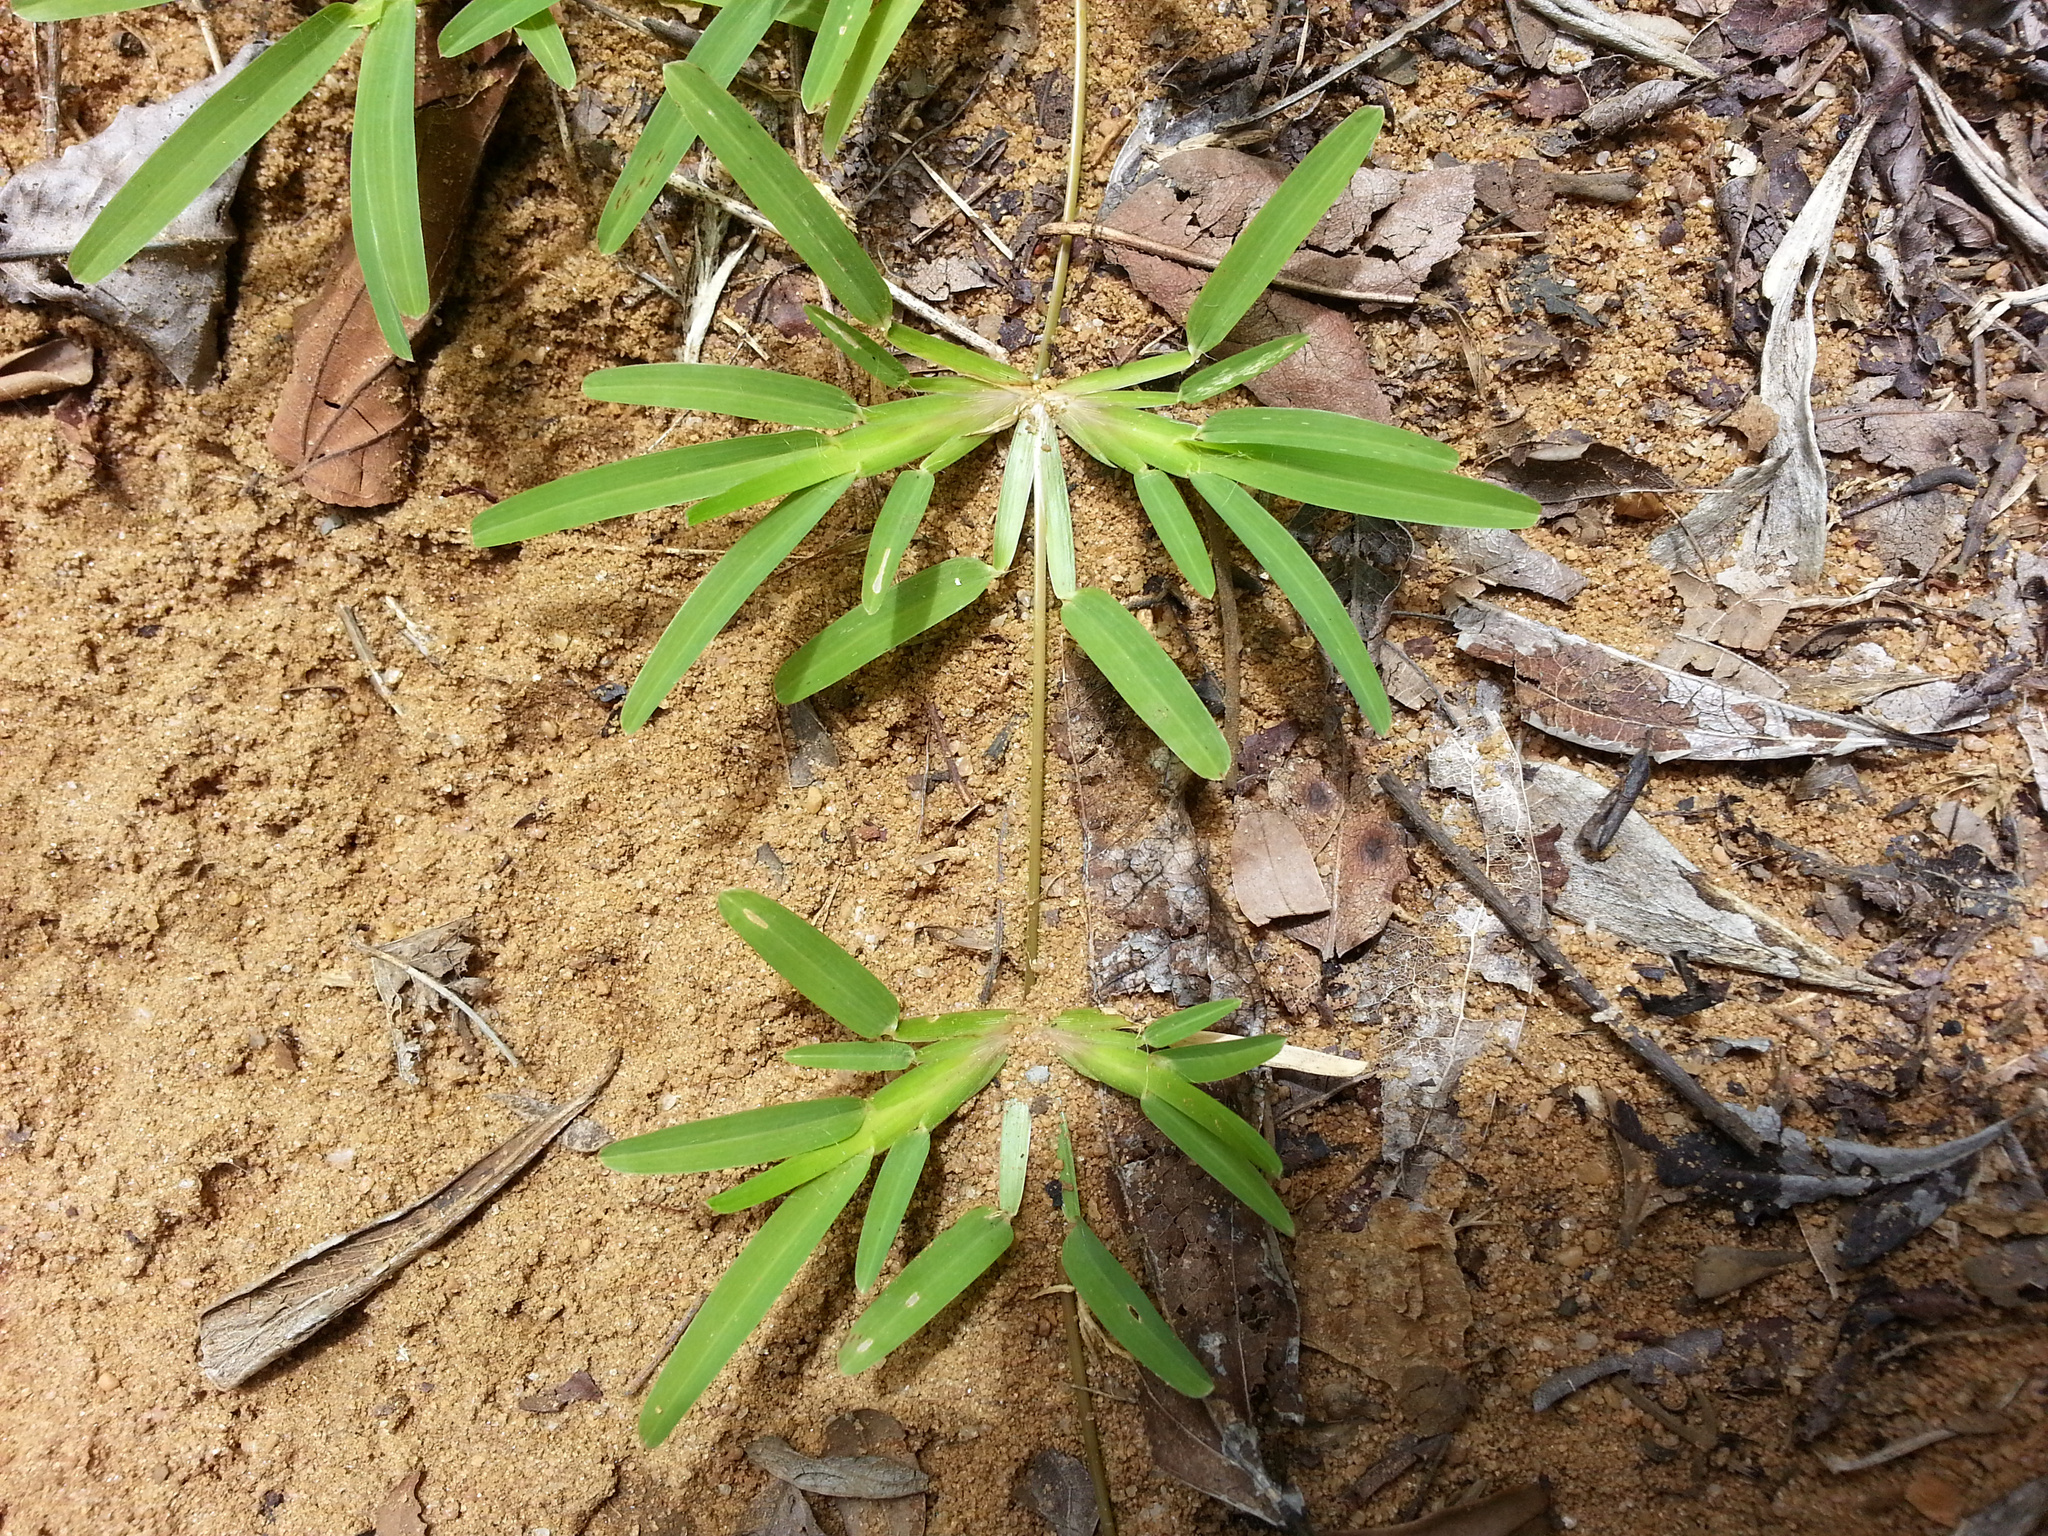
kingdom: Plantae
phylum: Tracheophyta
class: Liliopsida
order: Poales
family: Poaceae
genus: Neostapfiella
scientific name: Neostapfiella perrieri
